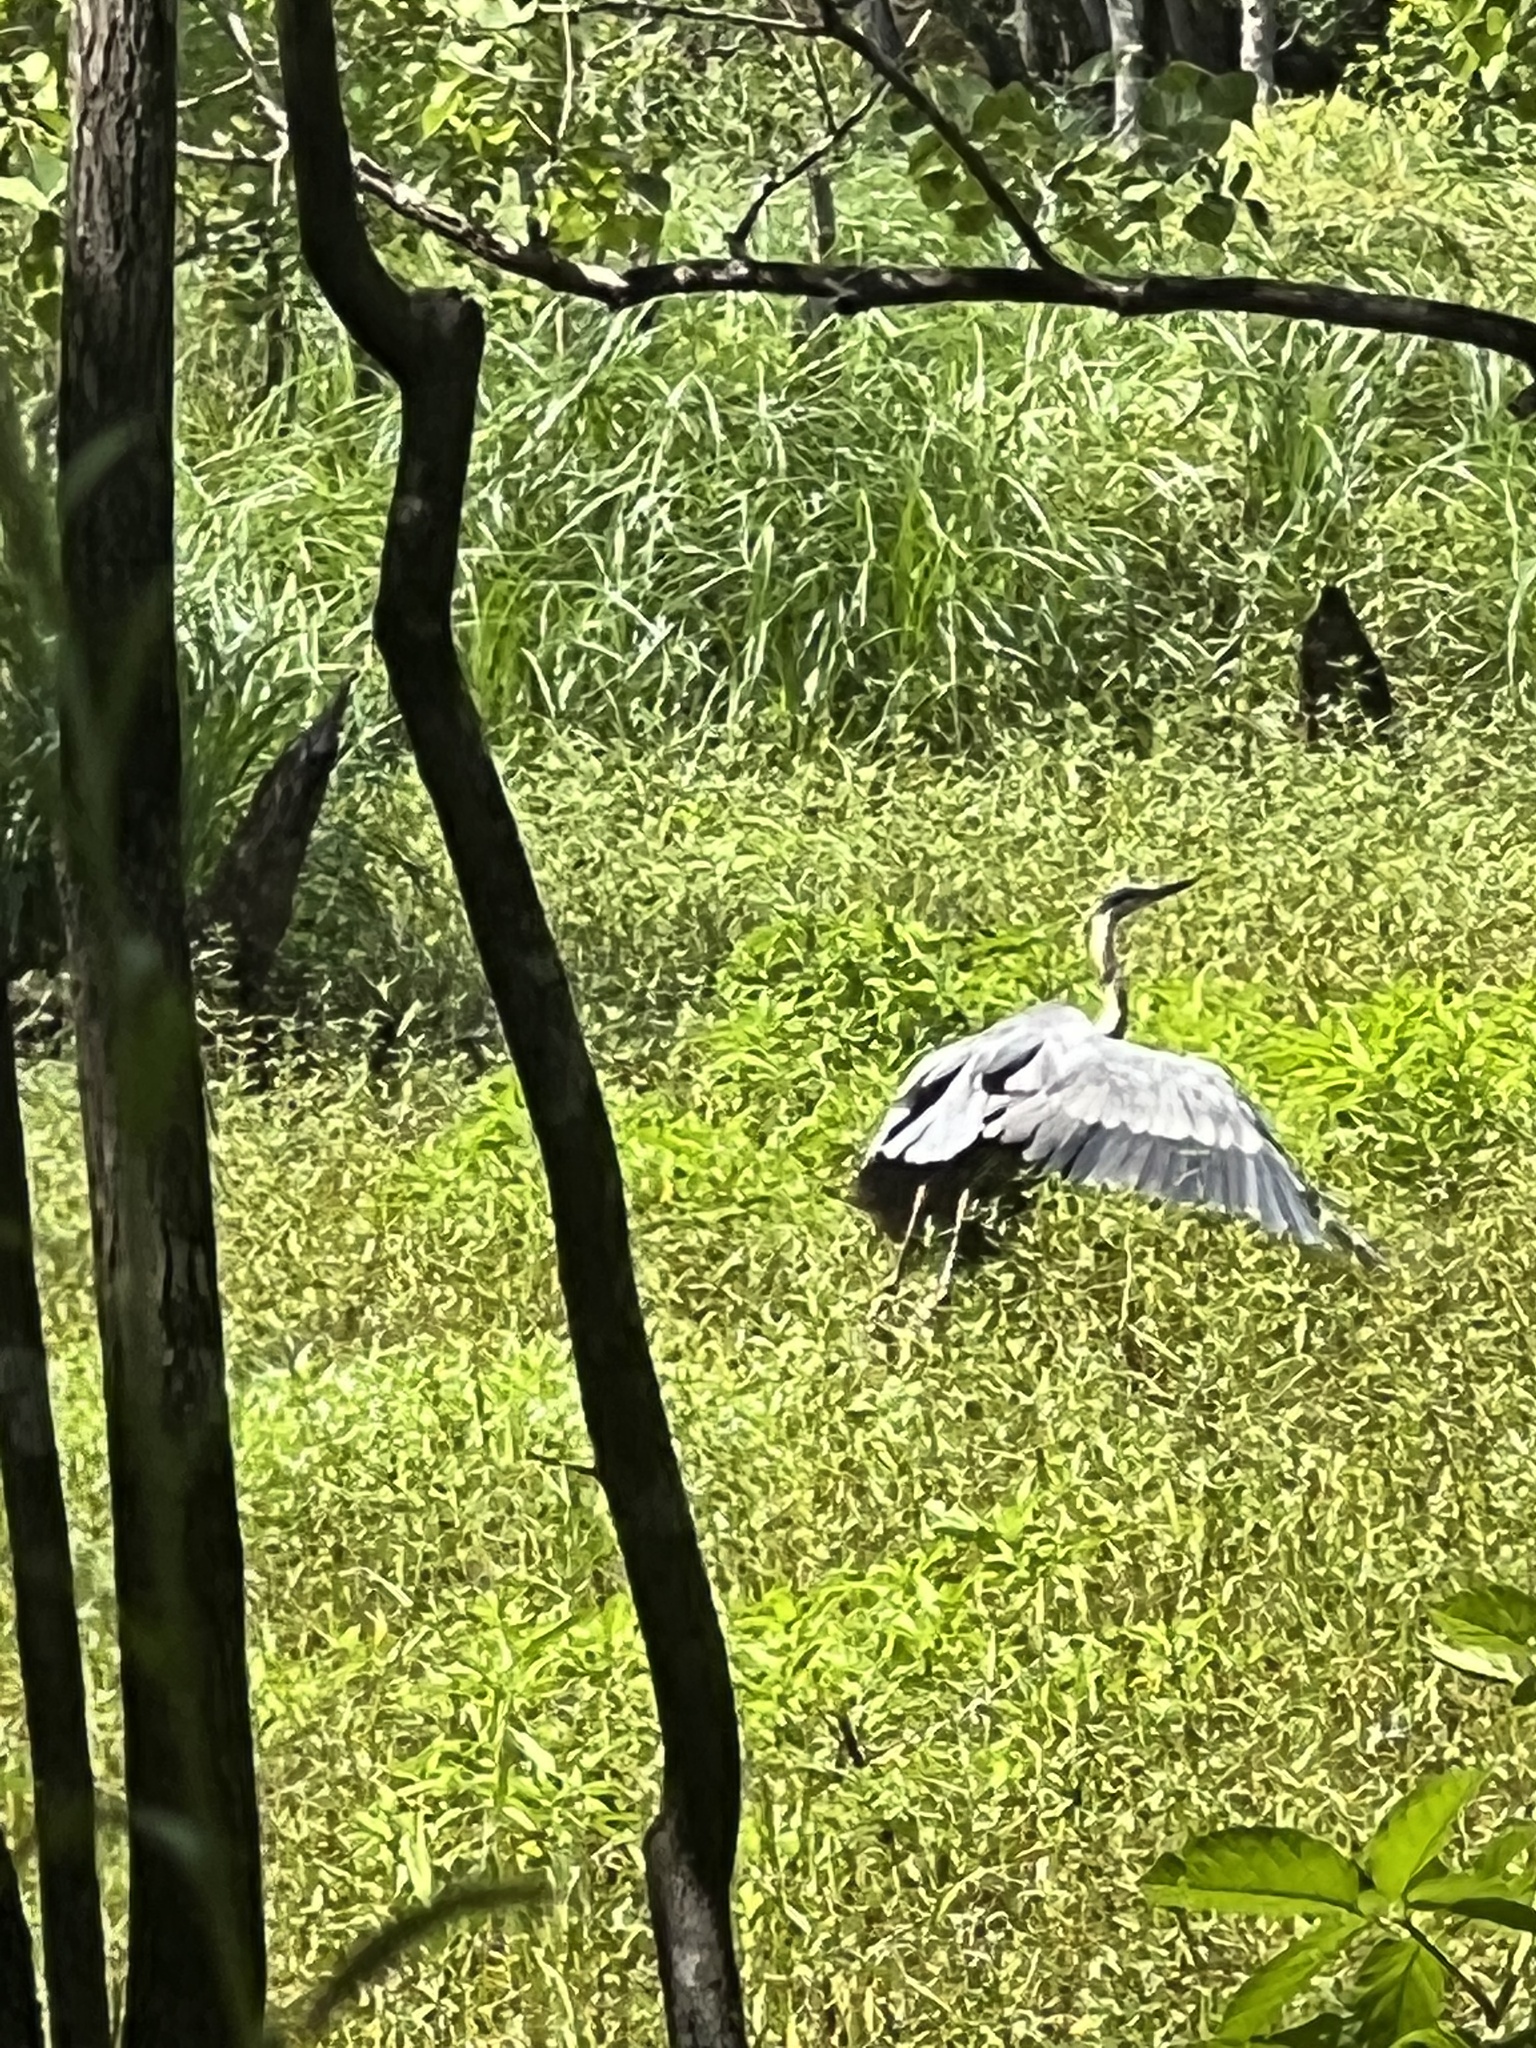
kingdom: Animalia
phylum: Chordata
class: Aves
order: Pelecaniformes
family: Ardeidae
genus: Ardea
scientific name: Ardea herodias
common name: Great blue heron
